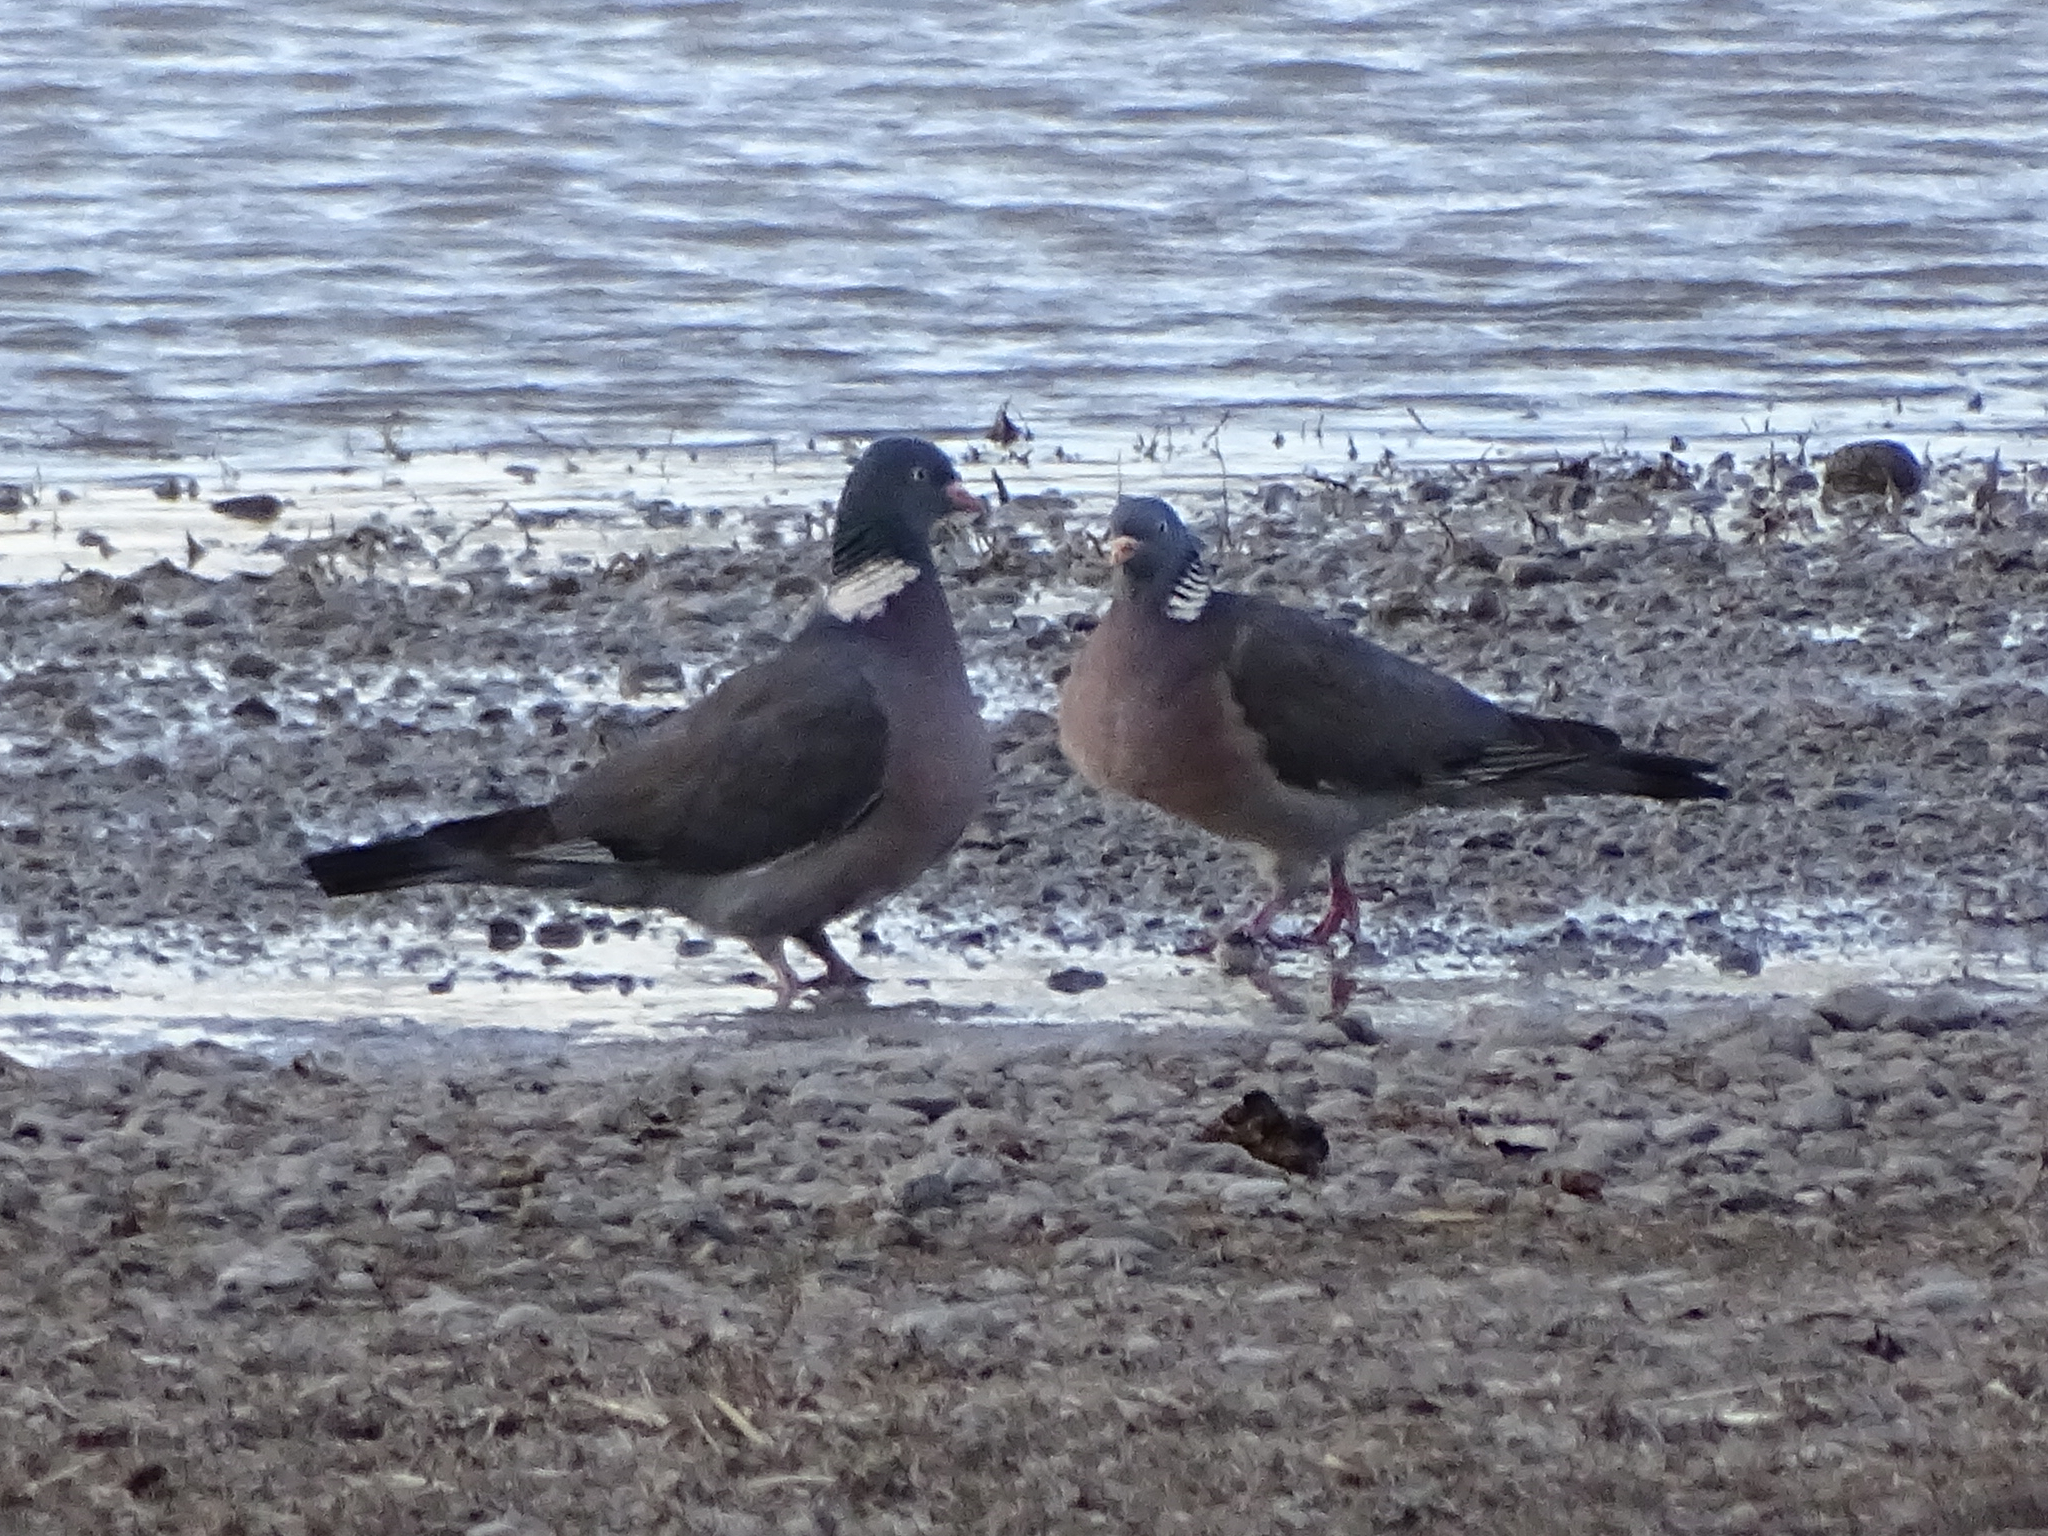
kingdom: Animalia
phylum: Chordata
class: Aves
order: Columbiformes
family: Columbidae
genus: Columba
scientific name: Columba palumbus
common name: Common wood pigeon
